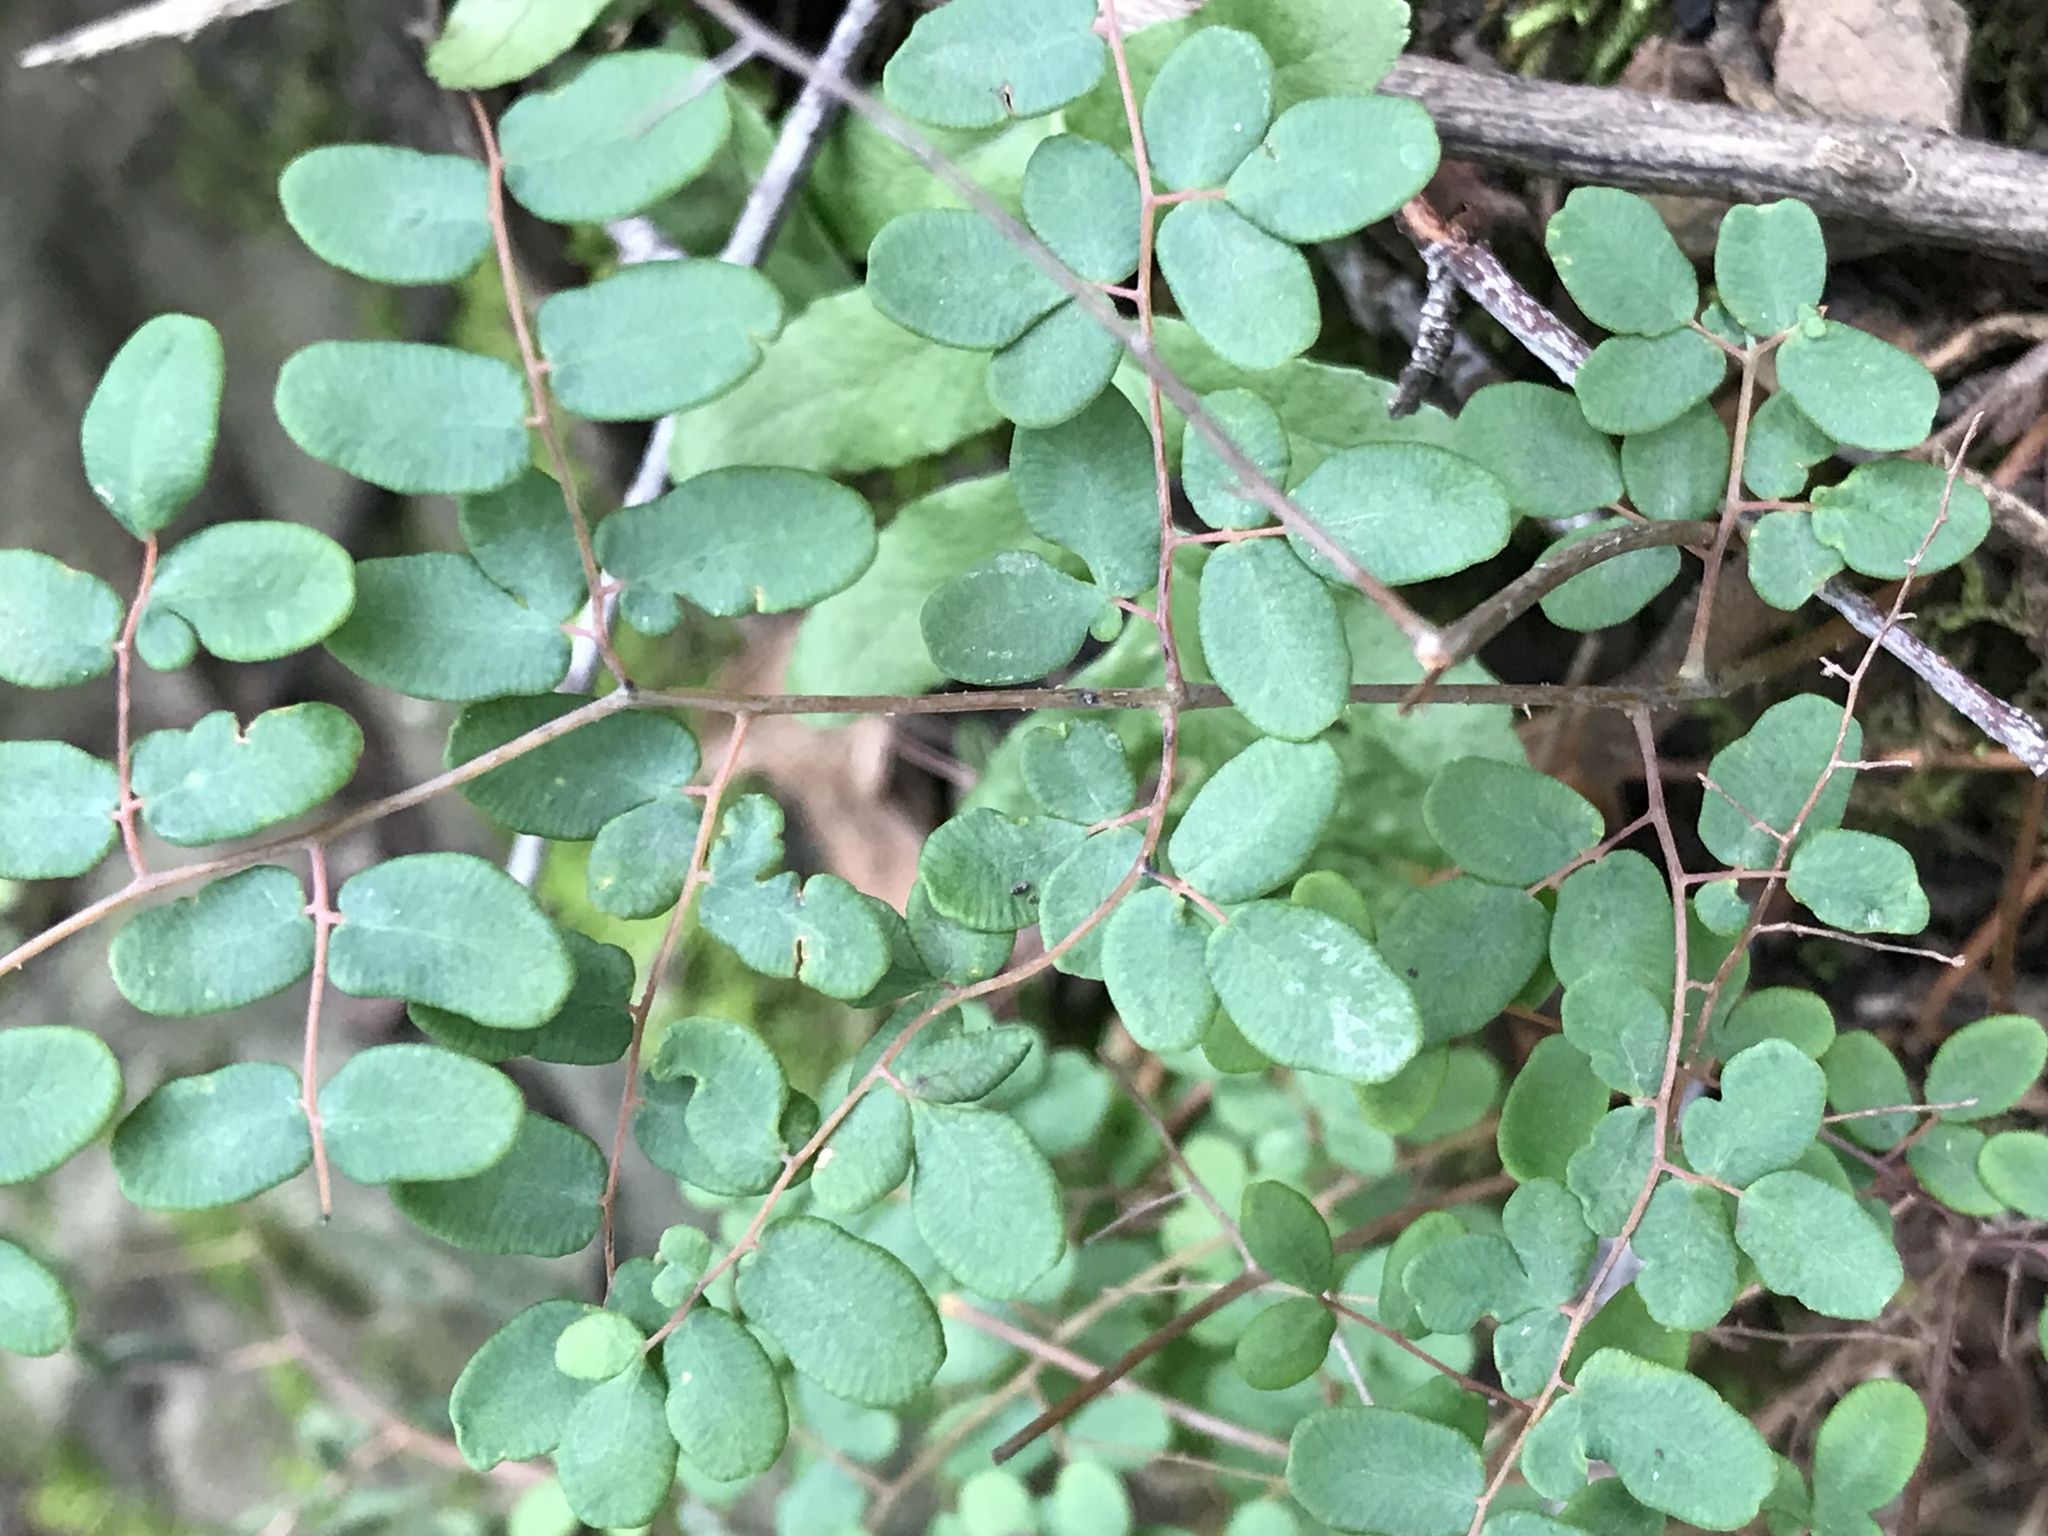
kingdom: Plantae
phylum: Tracheophyta
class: Polypodiopsida
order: Polypodiales
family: Pteridaceae
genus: Pellaea
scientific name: Pellaea andromedifolia
